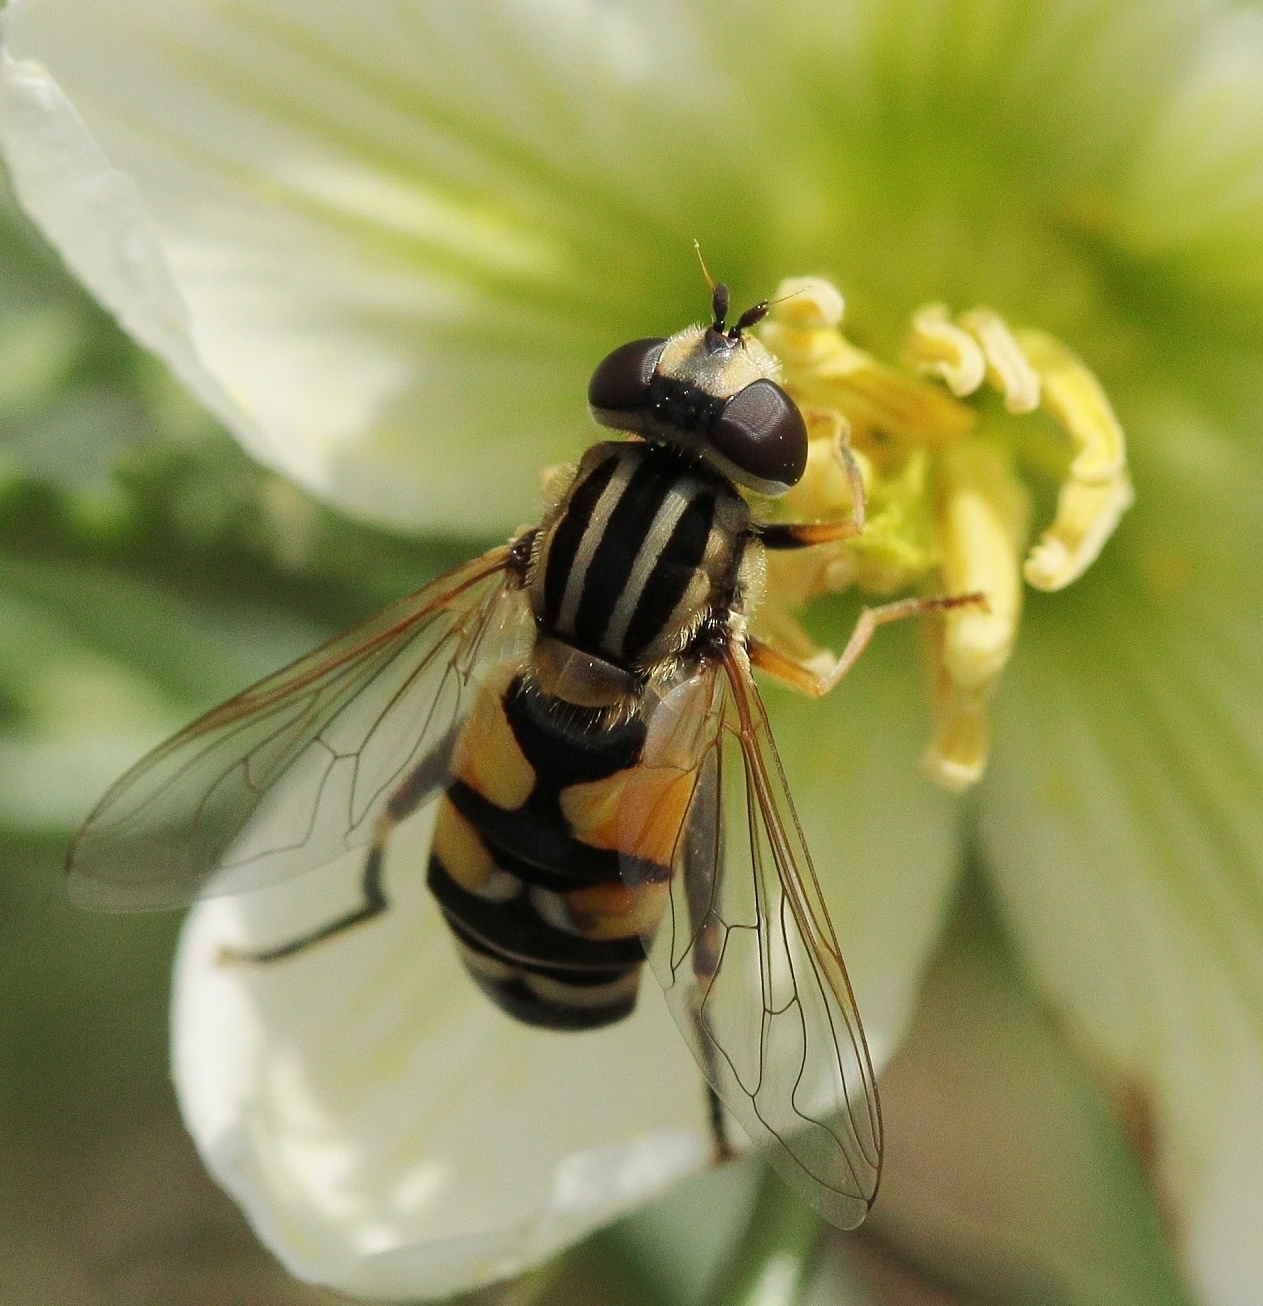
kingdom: Animalia
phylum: Arthropoda
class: Insecta
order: Diptera
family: Syrphidae
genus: Helophilus
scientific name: Helophilus trivittatus
